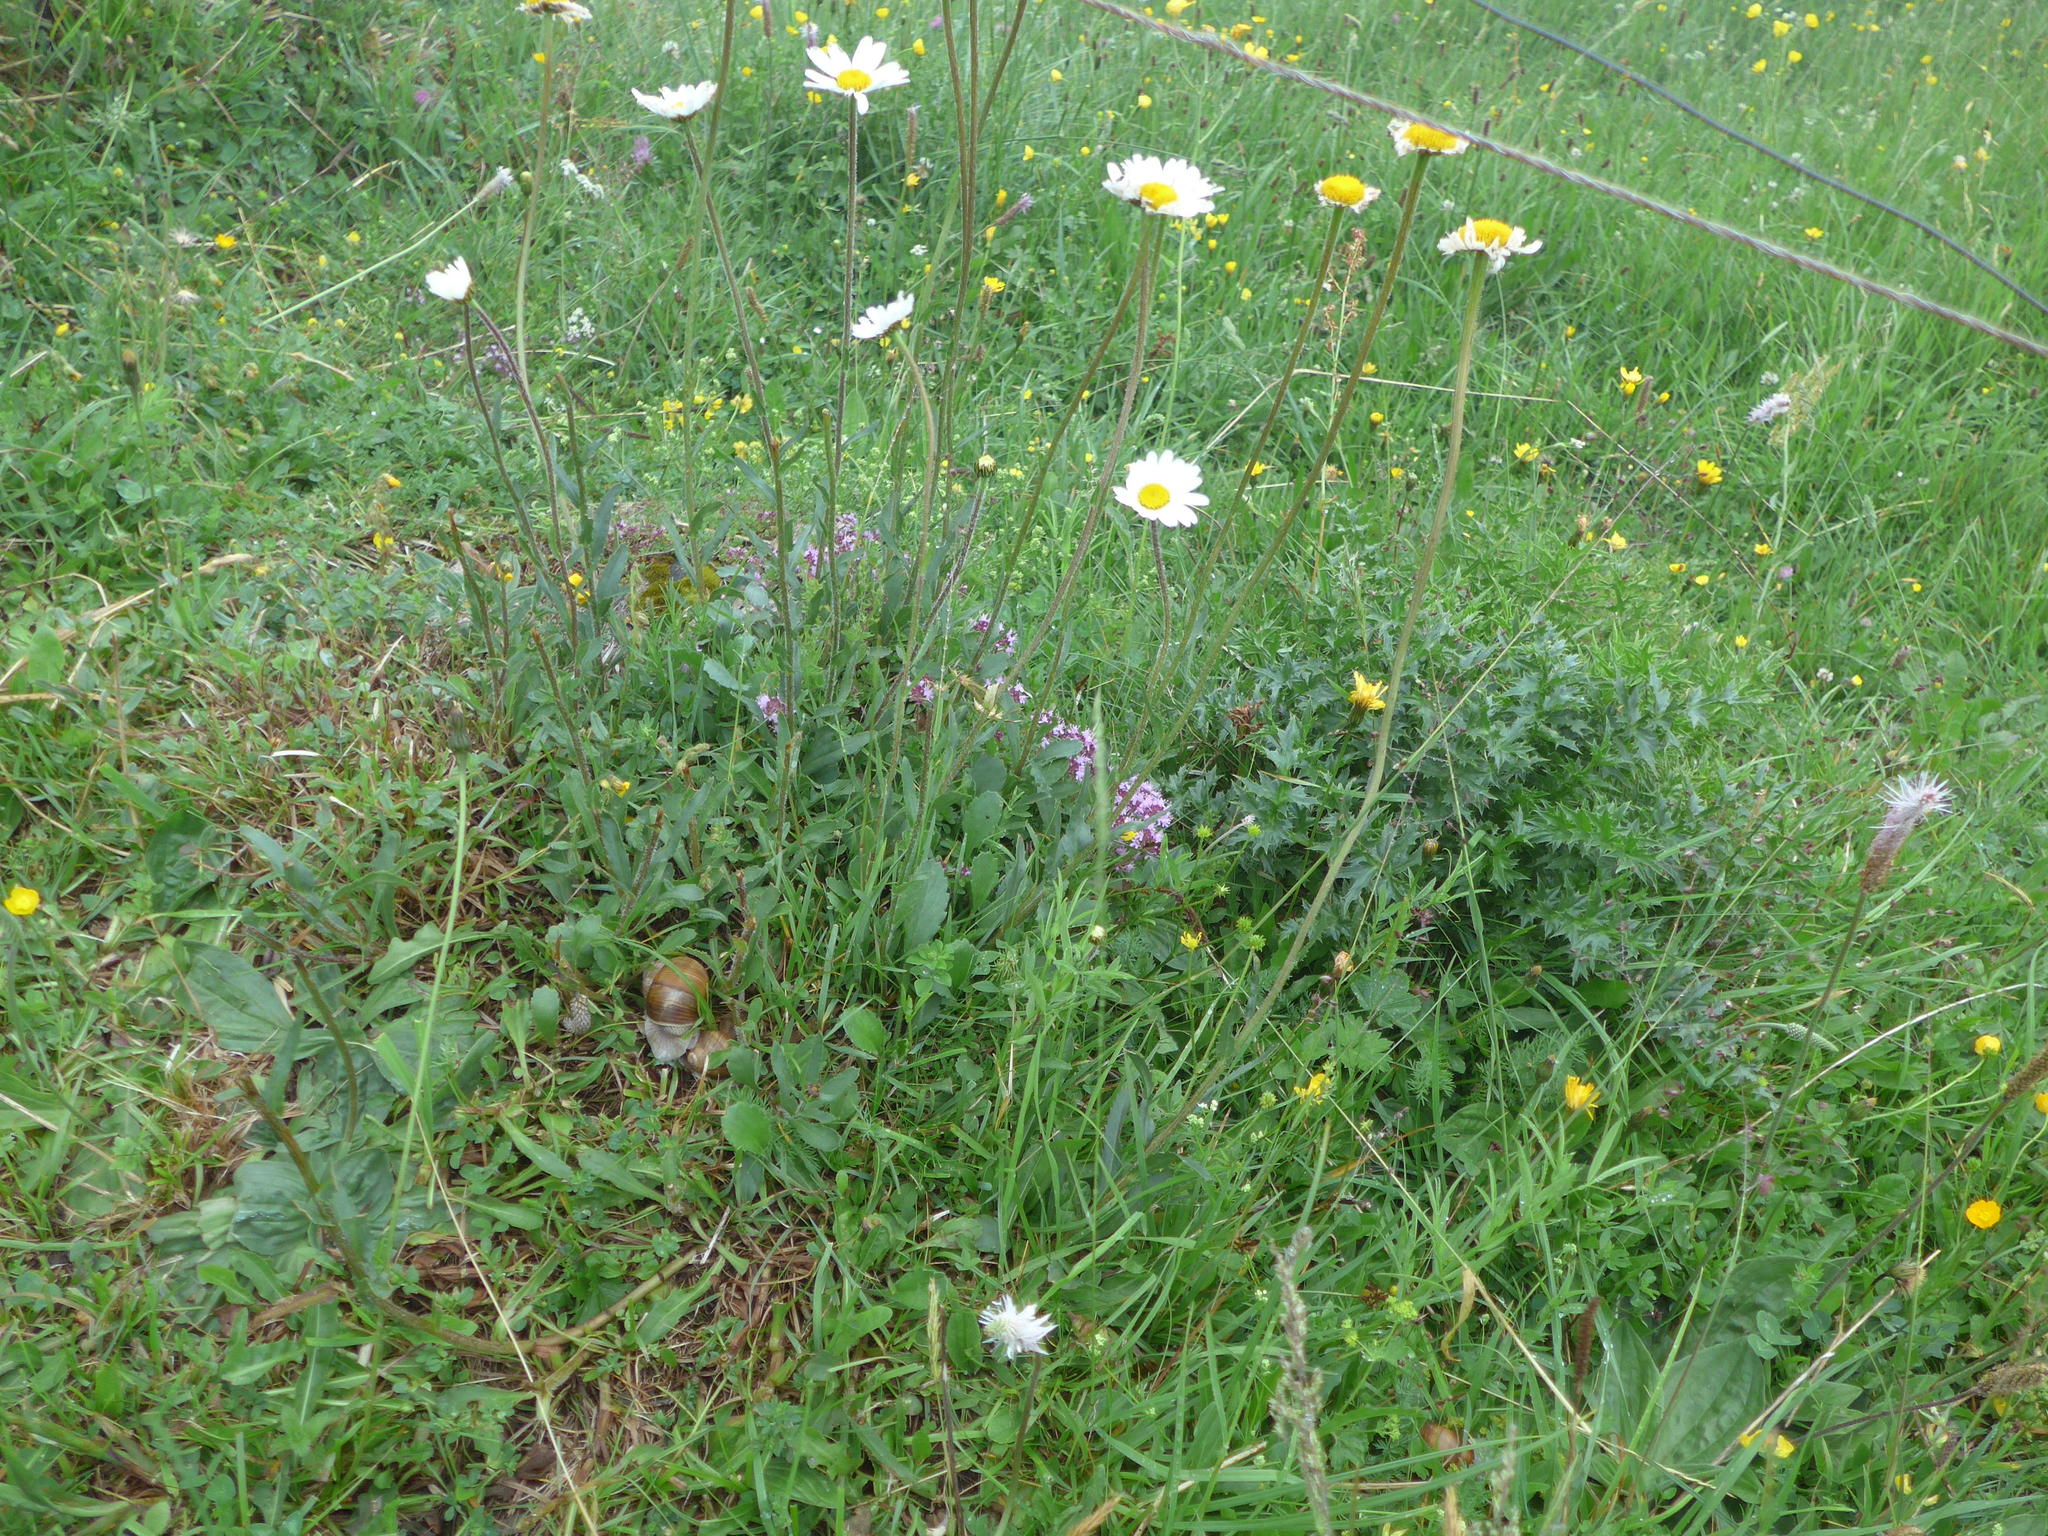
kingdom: Plantae
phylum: Tracheophyta
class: Magnoliopsida
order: Asterales
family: Asteraceae
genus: Leucanthemum
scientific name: Leucanthemum vulgare
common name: Oxeye daisy
